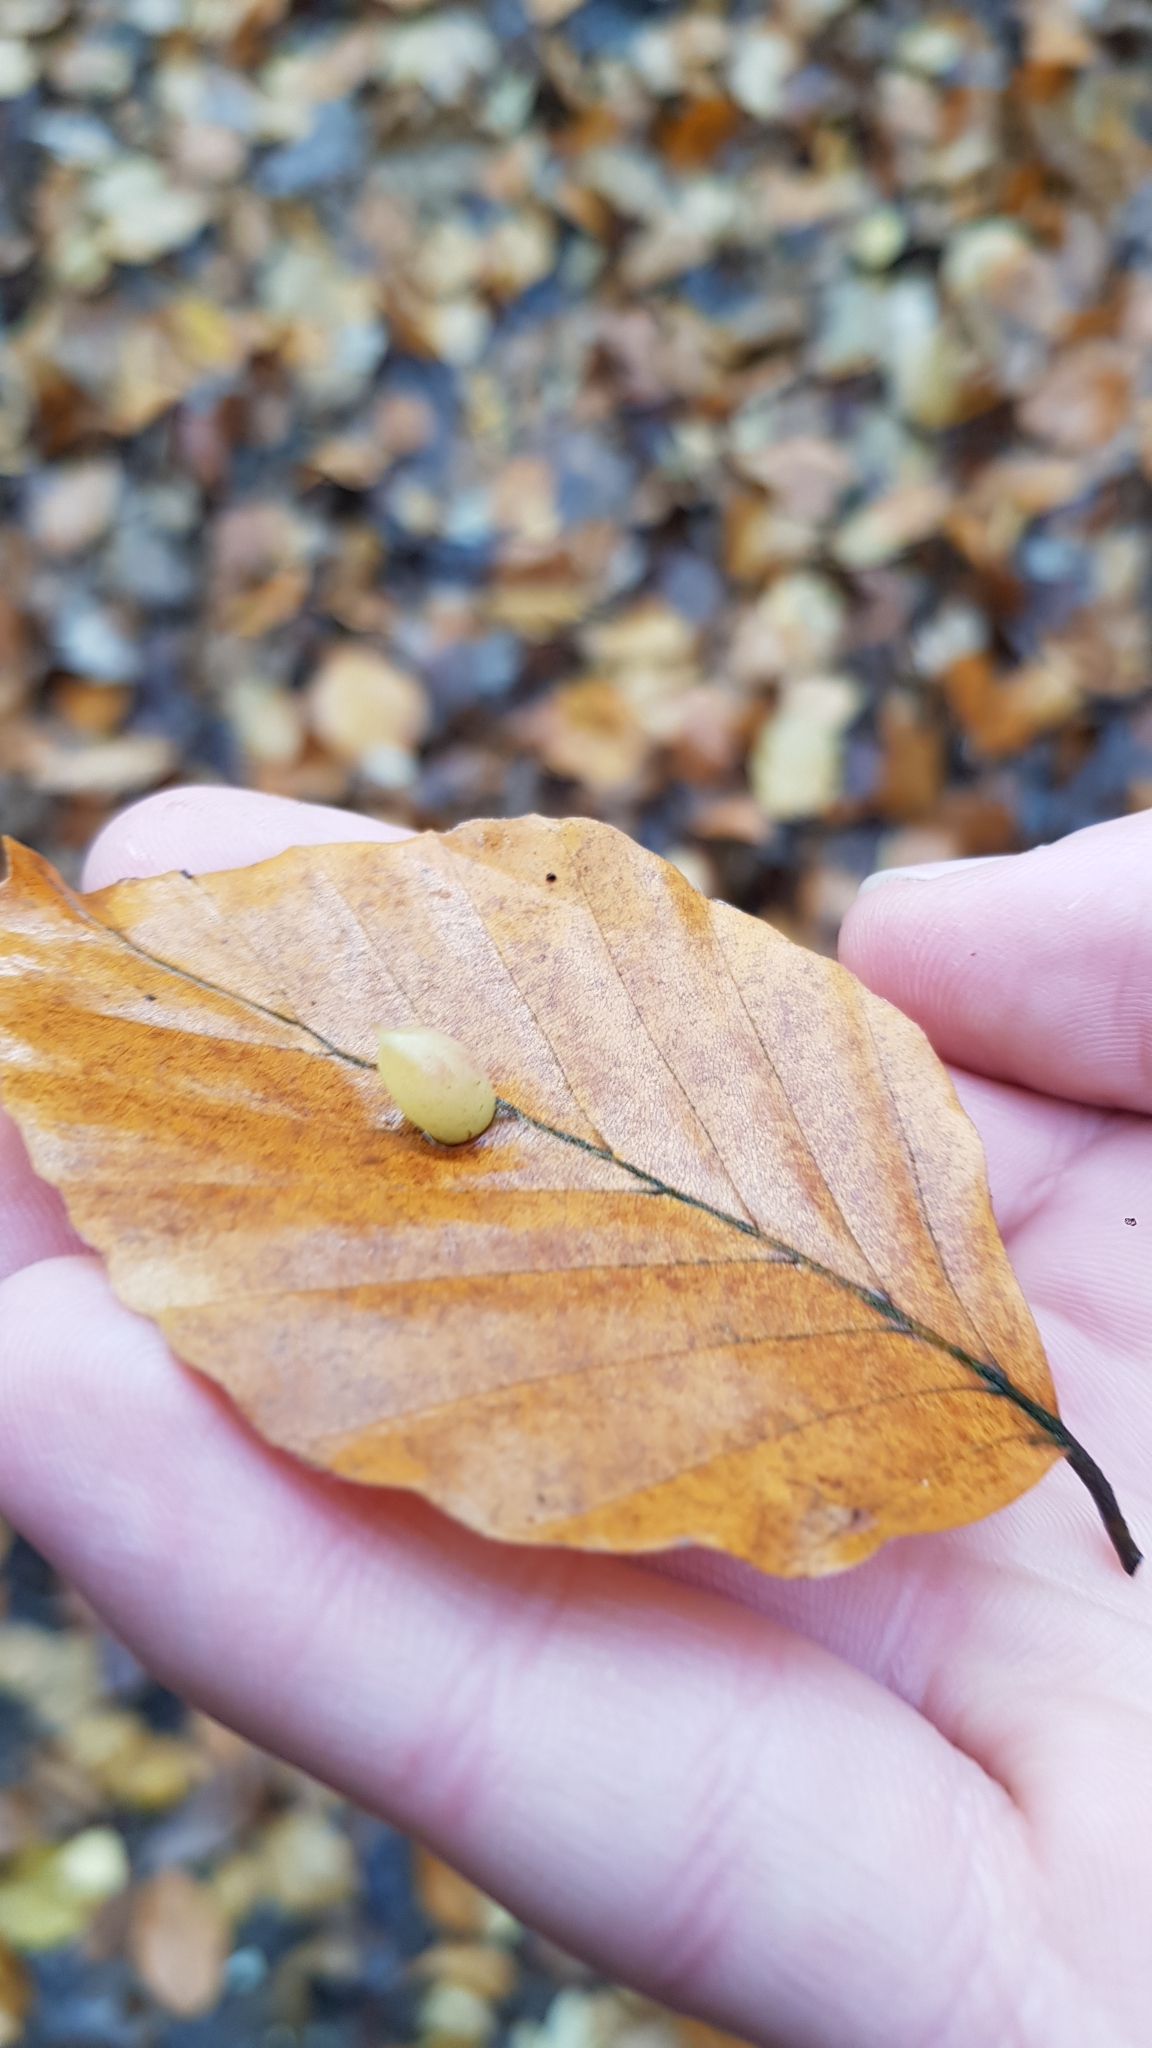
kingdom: Animalia
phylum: Arthropoda
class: Insecta
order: Diptera
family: Cecidomyiidae
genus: Mikiola
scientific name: Mikiola fagi
